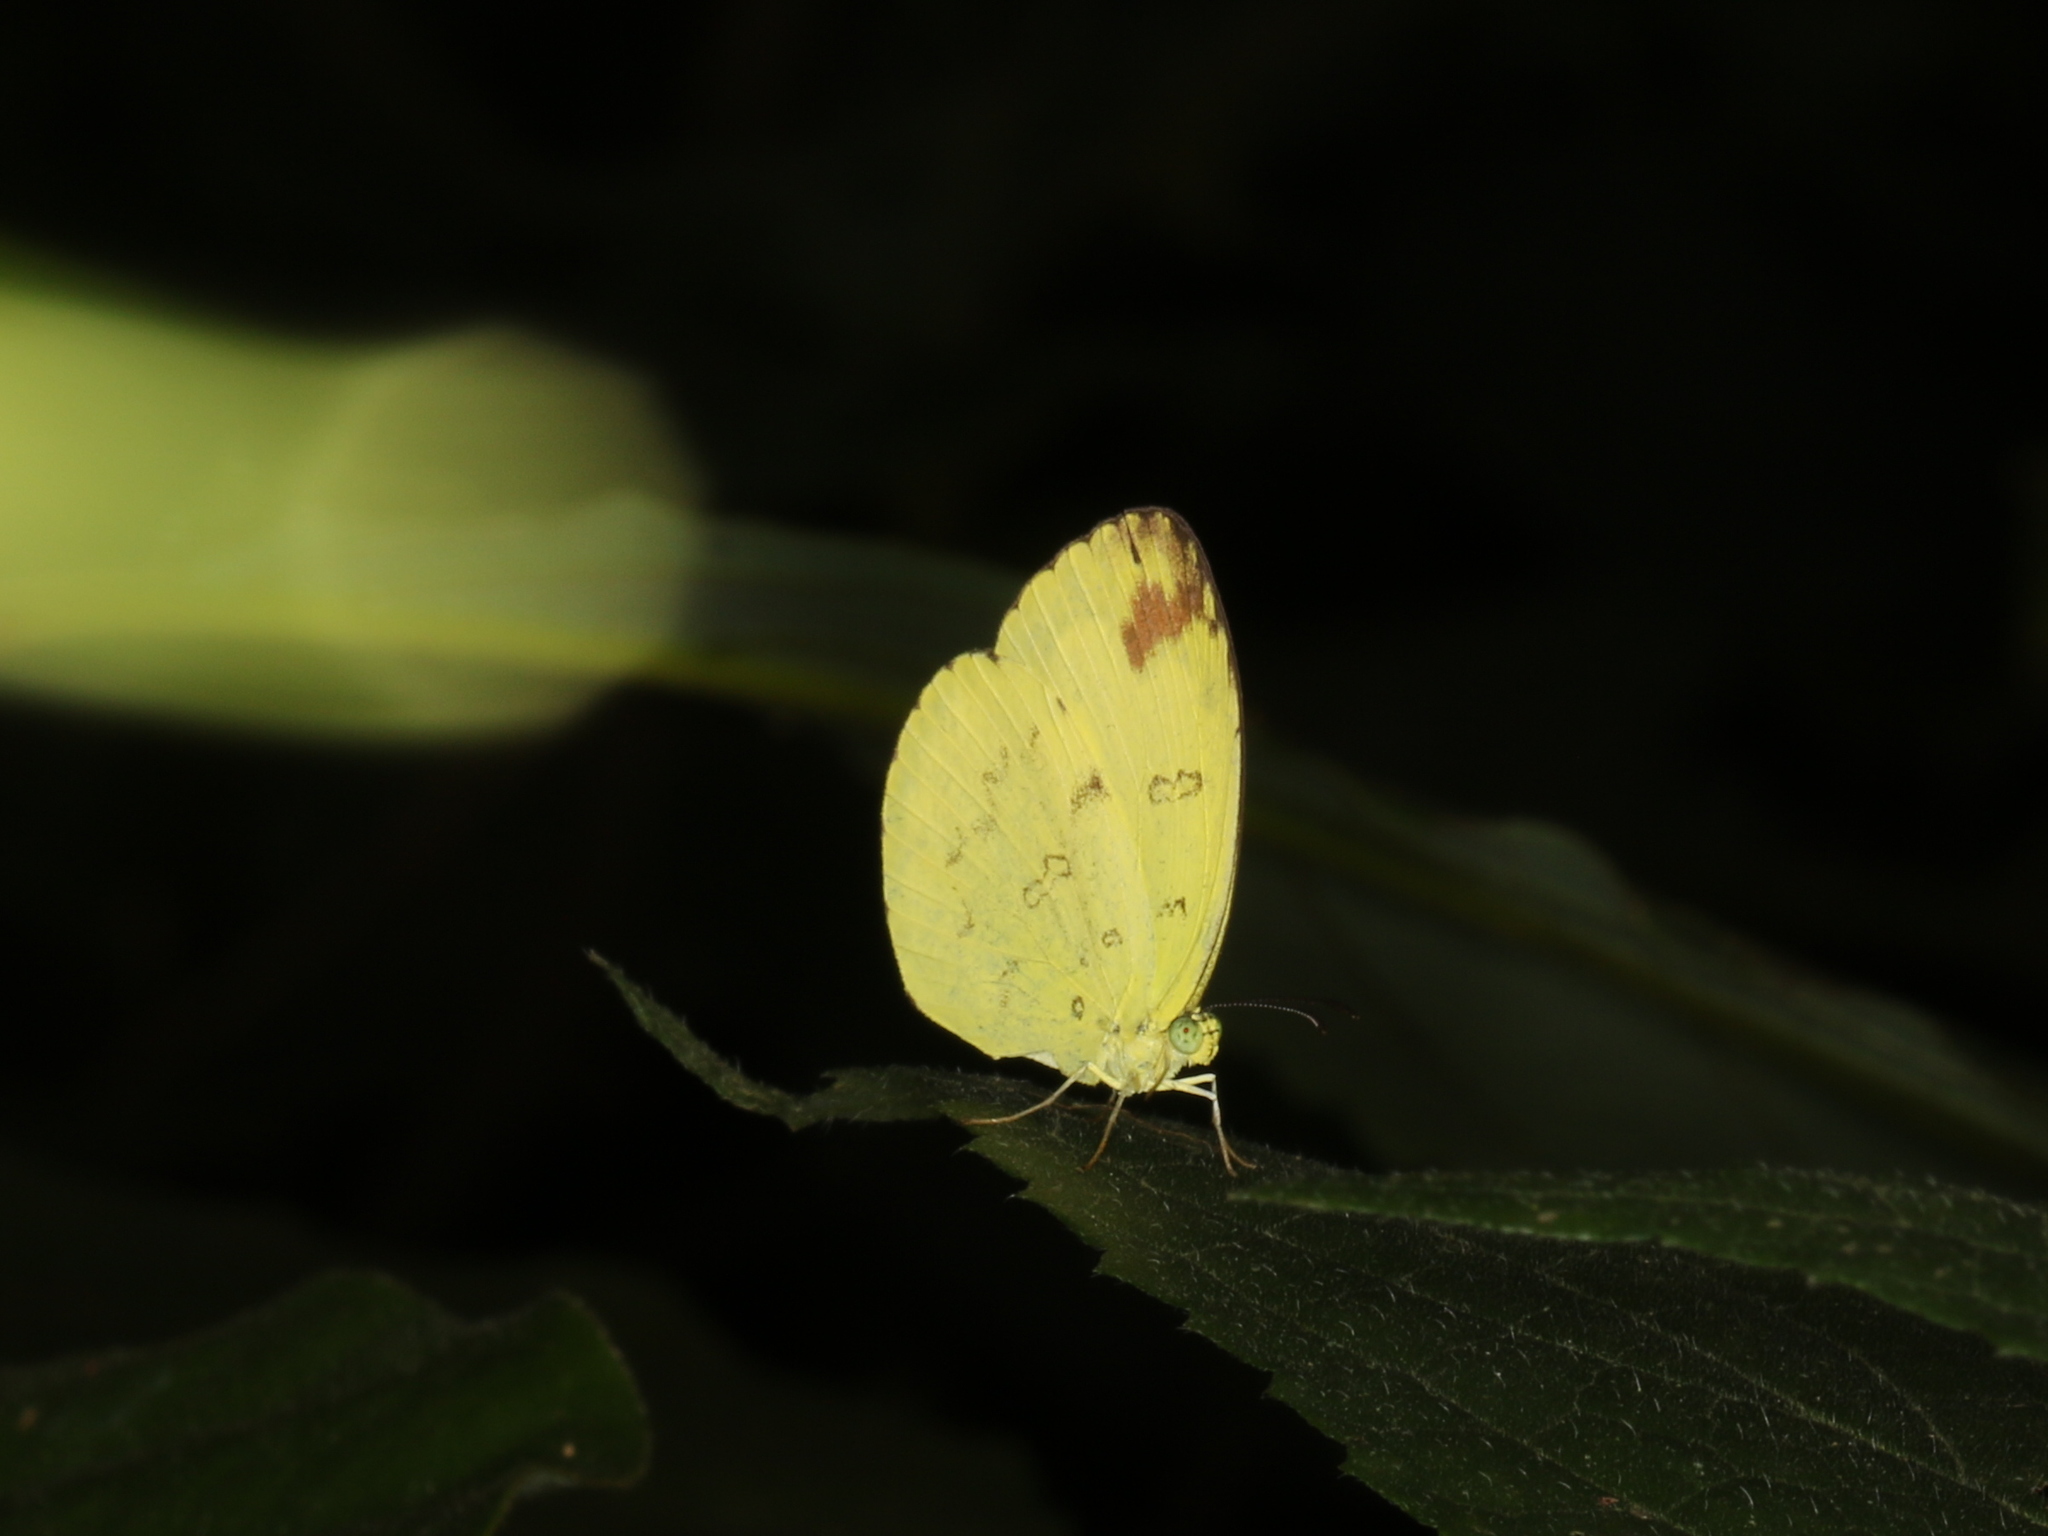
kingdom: Animalia
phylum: Arthropoda
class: Insecta
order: Lepidoptera
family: Pieridae
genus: Eurema
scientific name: Eurema andersoni
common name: One-spot yellow grass
